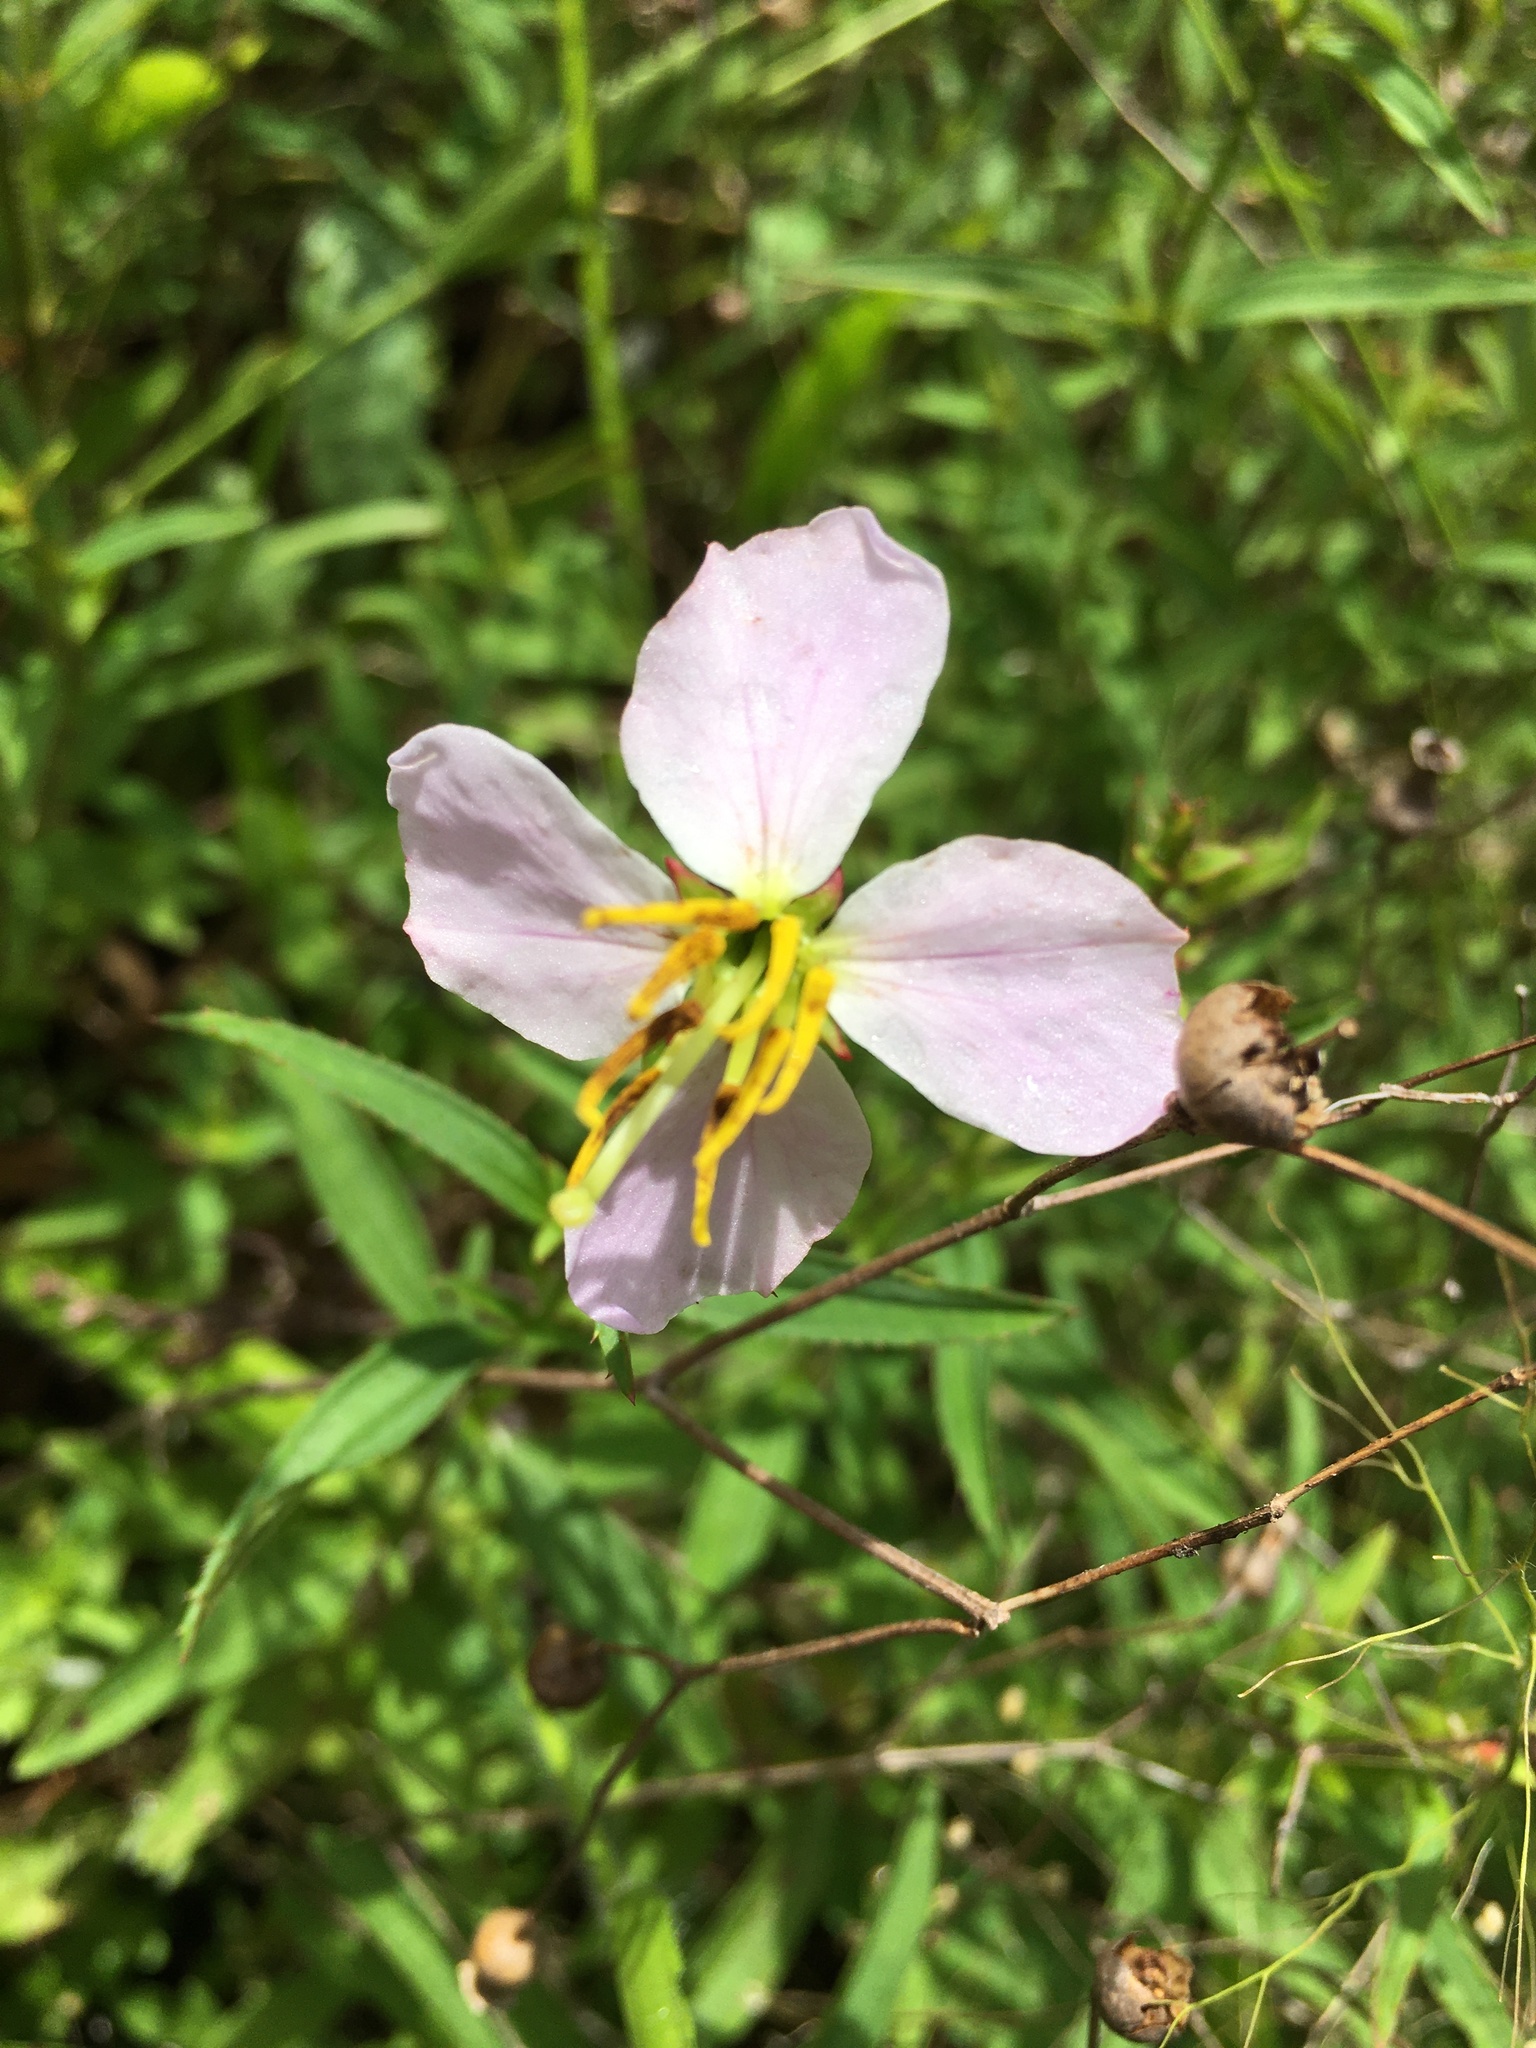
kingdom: Plantae
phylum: Tracheophyta
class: Magnoliopsida
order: Myrtales
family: Melastomataceae
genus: Rhexia
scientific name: Rhexia mariana
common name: Dull meadow-pitcher
